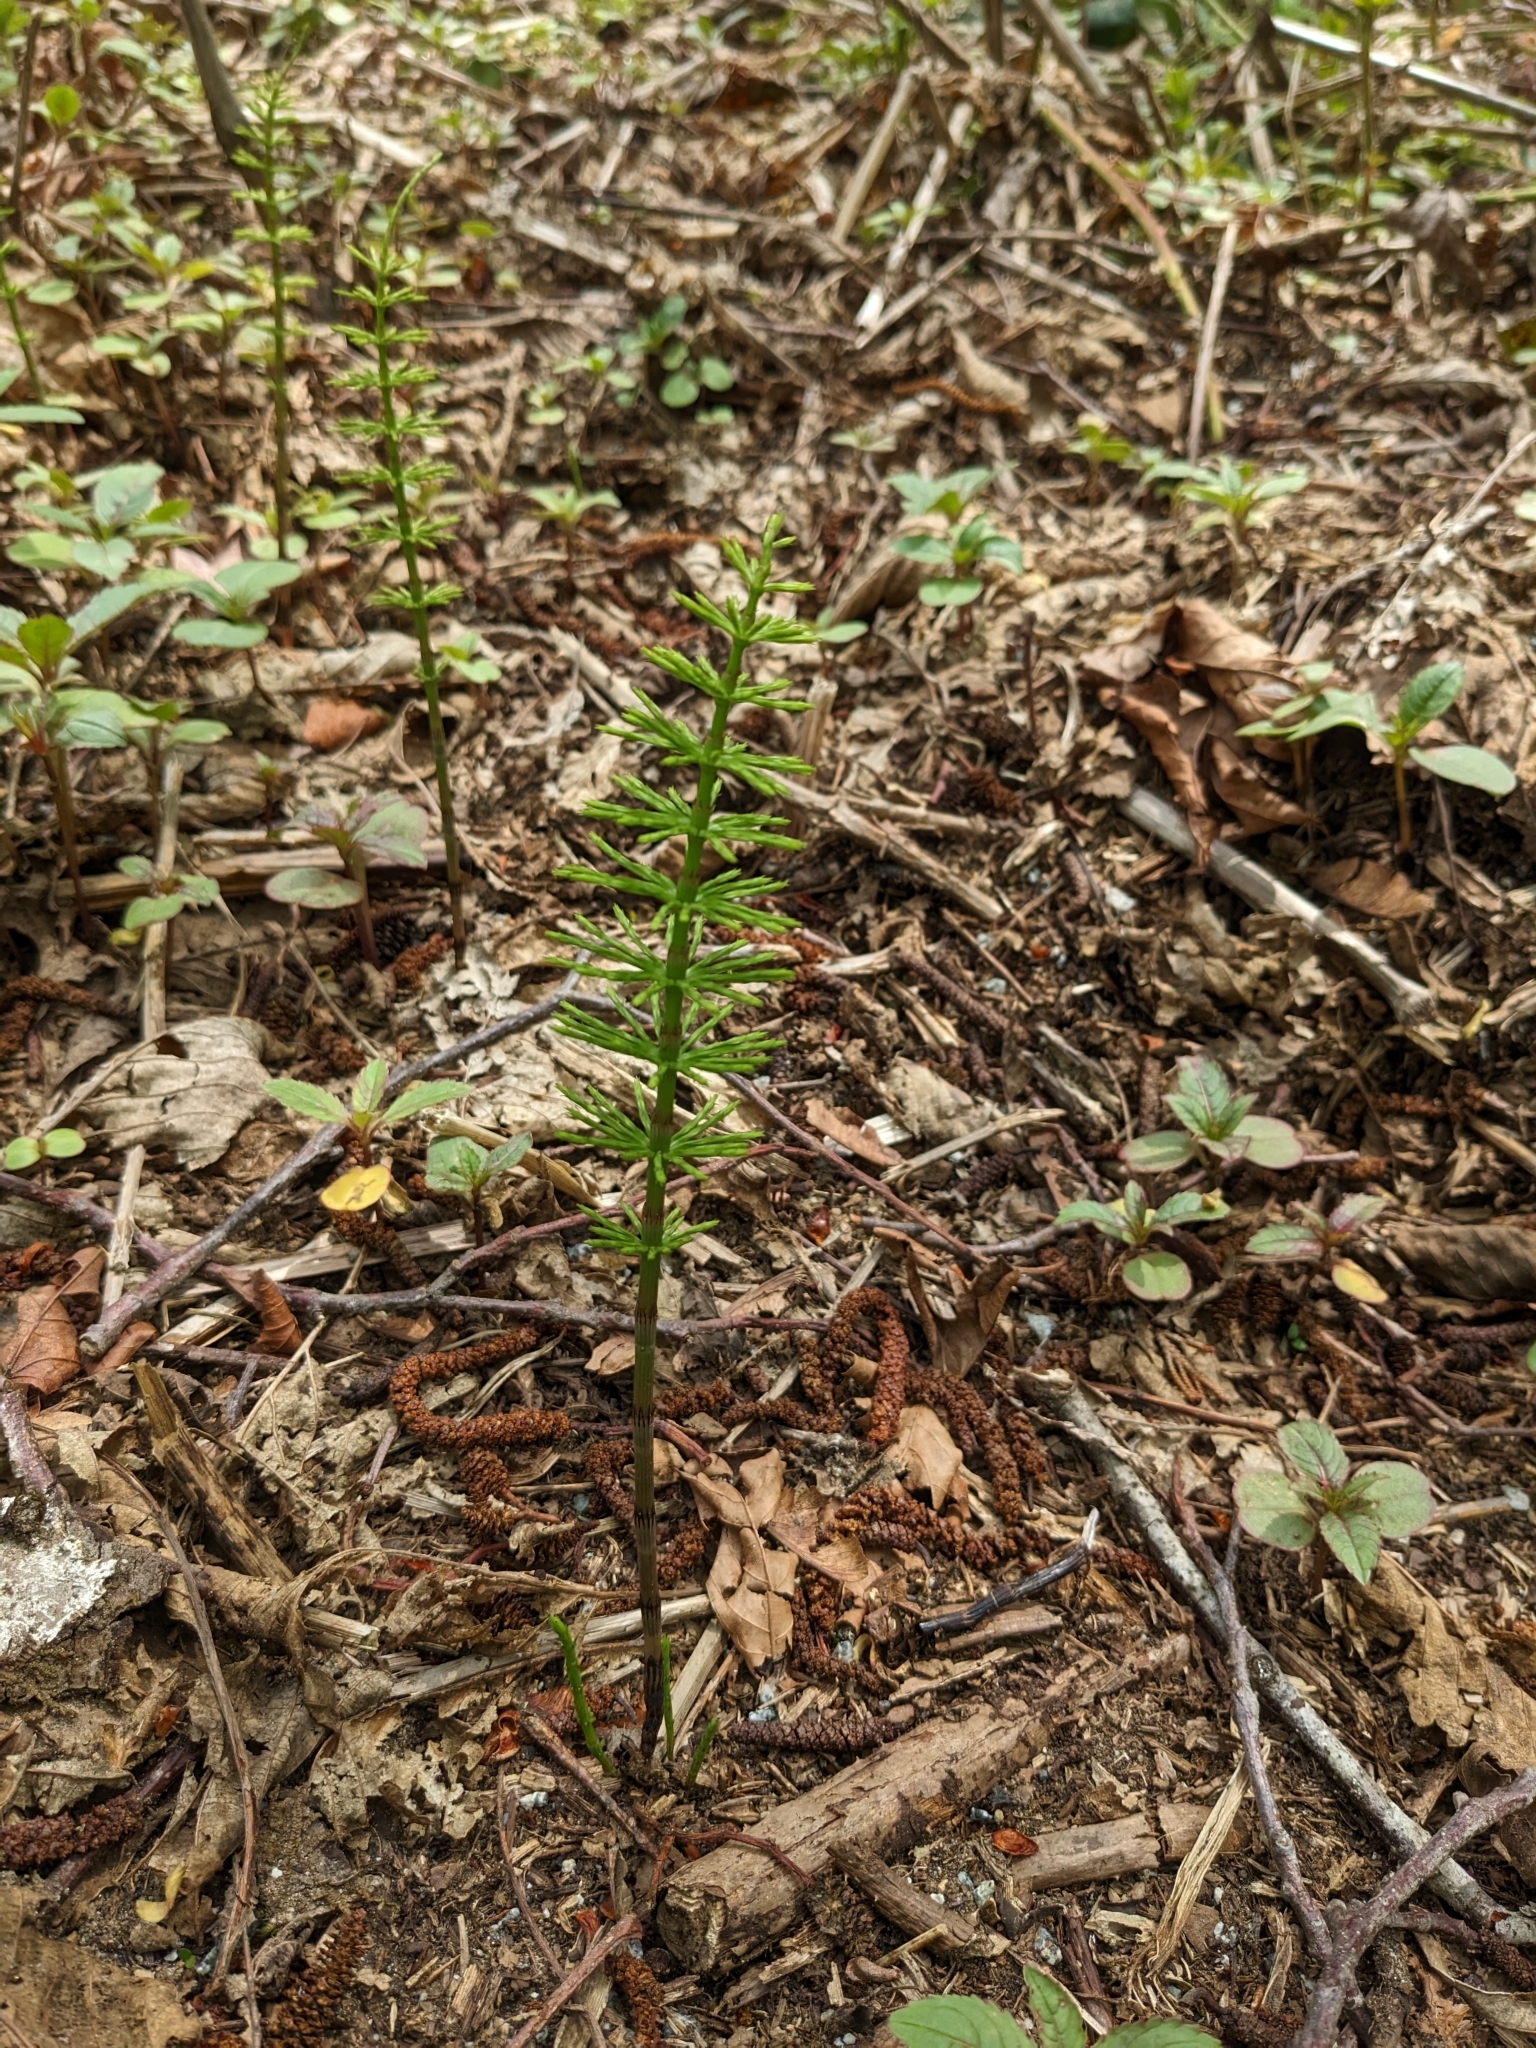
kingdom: Plantae
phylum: Tracheophyta
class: Polypodiopsida
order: Equisetales
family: Equisetaceae
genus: Equisetum
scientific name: Equisetum arvense
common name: Field horsetail
